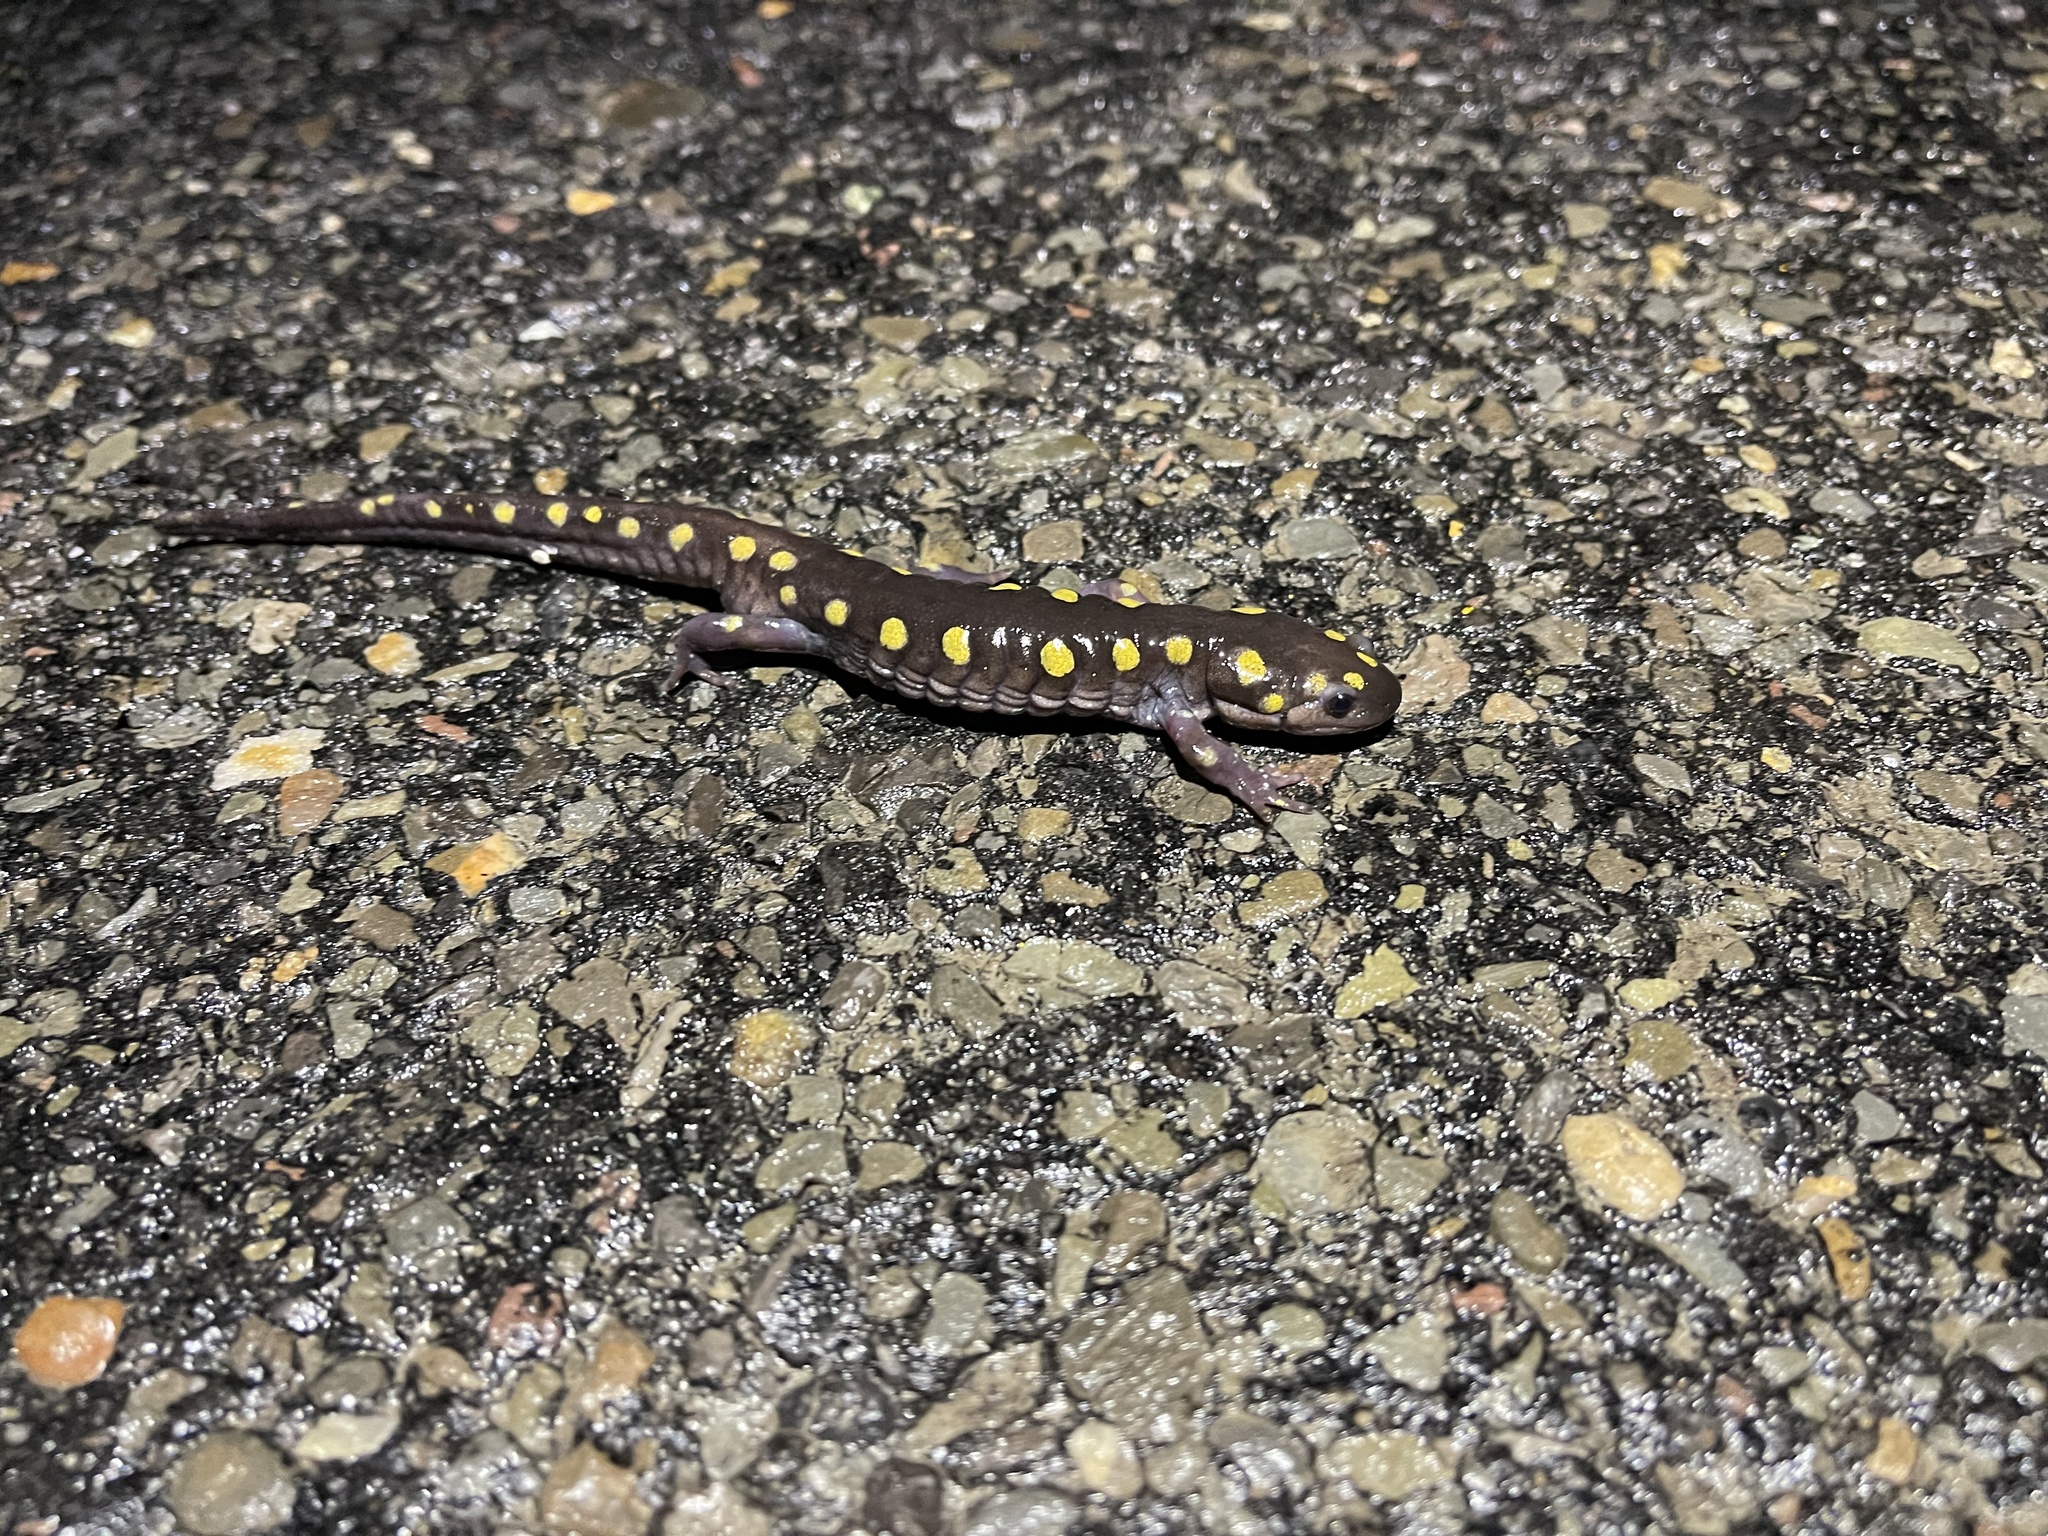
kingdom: Animalia
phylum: Chordata
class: Amphibia
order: Caudata
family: Ambystomatidae
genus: Ambystoma
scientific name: Ambystoma maculatum
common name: Spotted salamander
